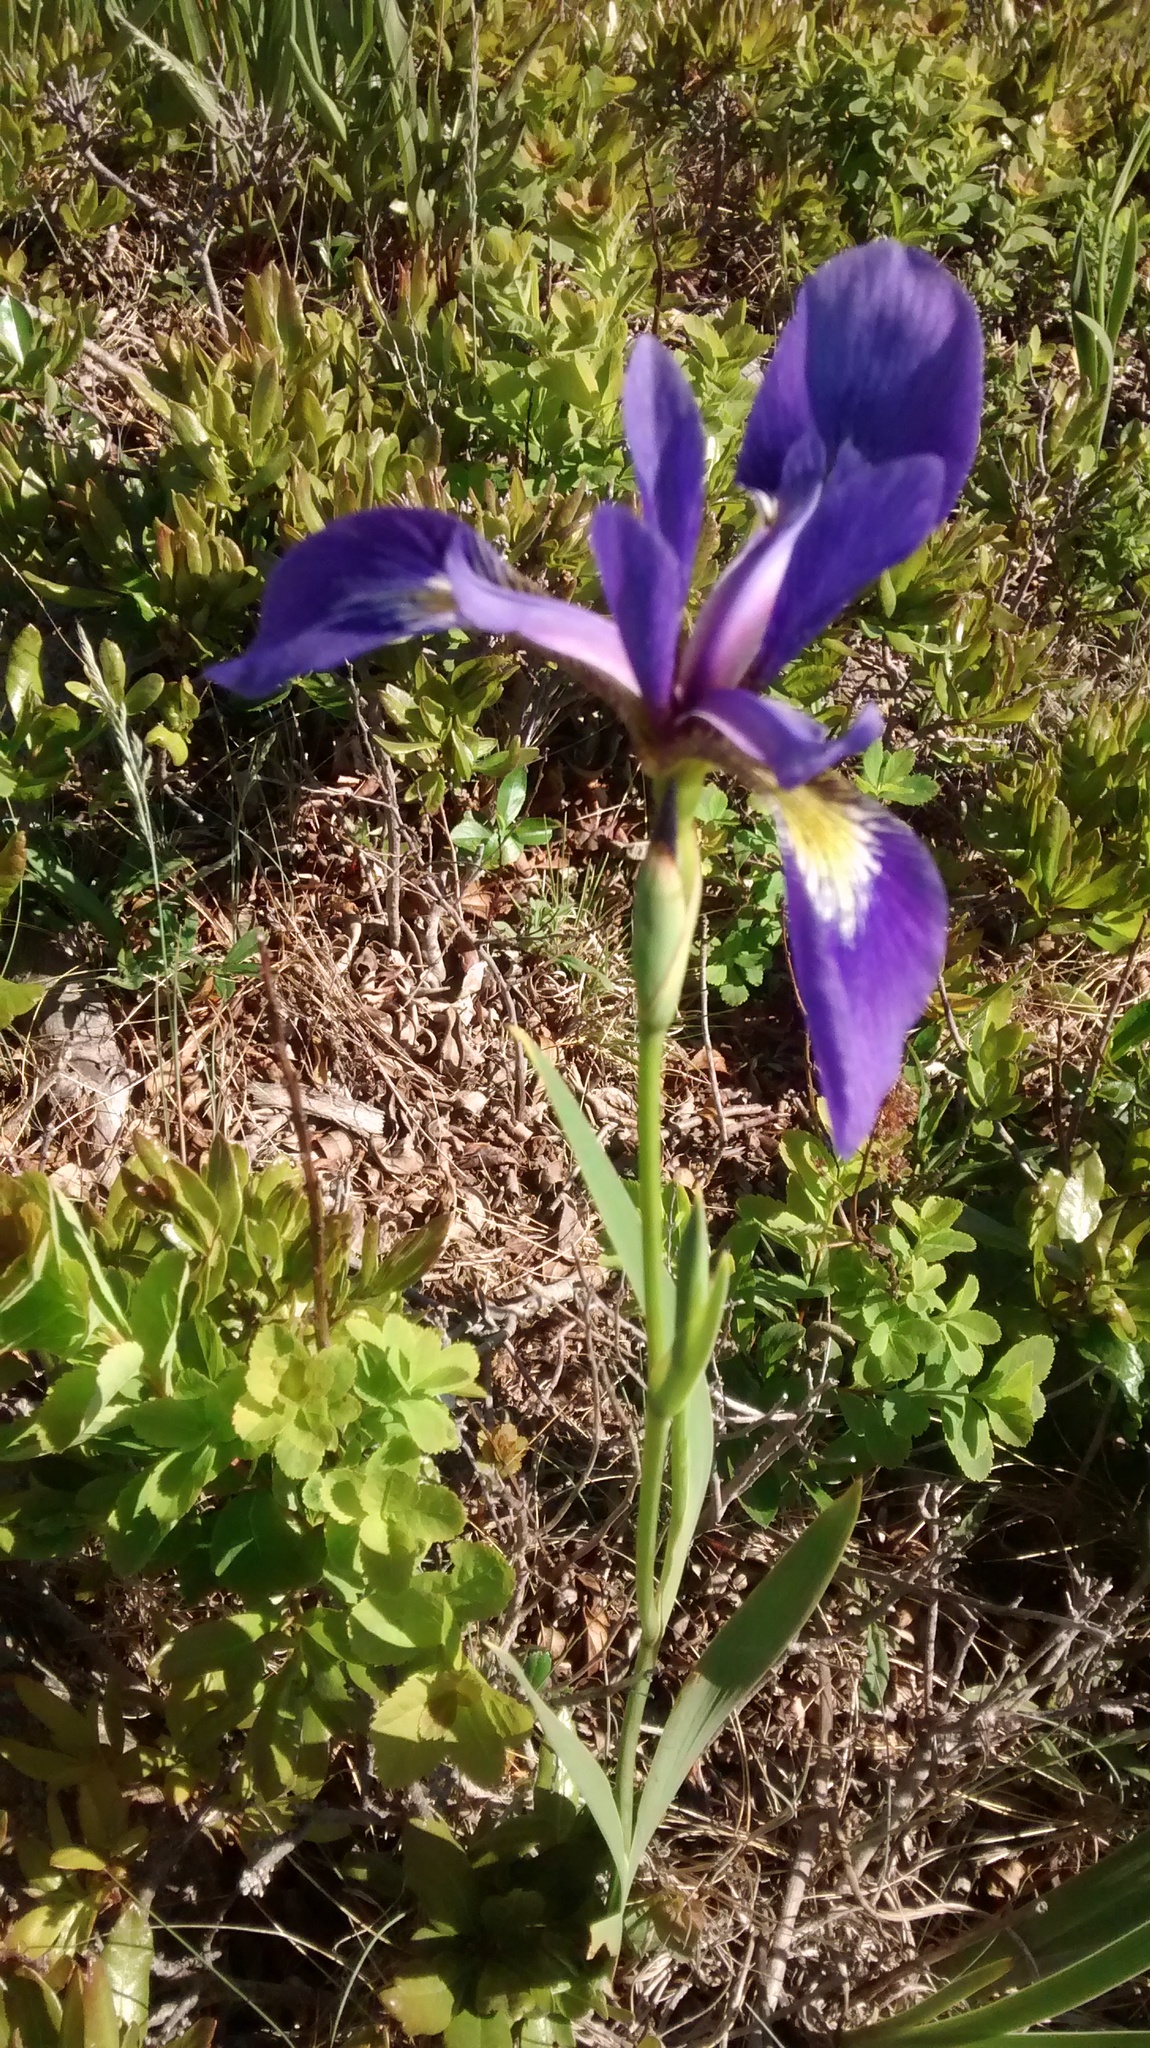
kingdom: Plantae
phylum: Tracheophyta
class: Liliopsida
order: Asparagales
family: Iridaceae
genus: Iris
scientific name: Iris versicolor
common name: Purple iris
